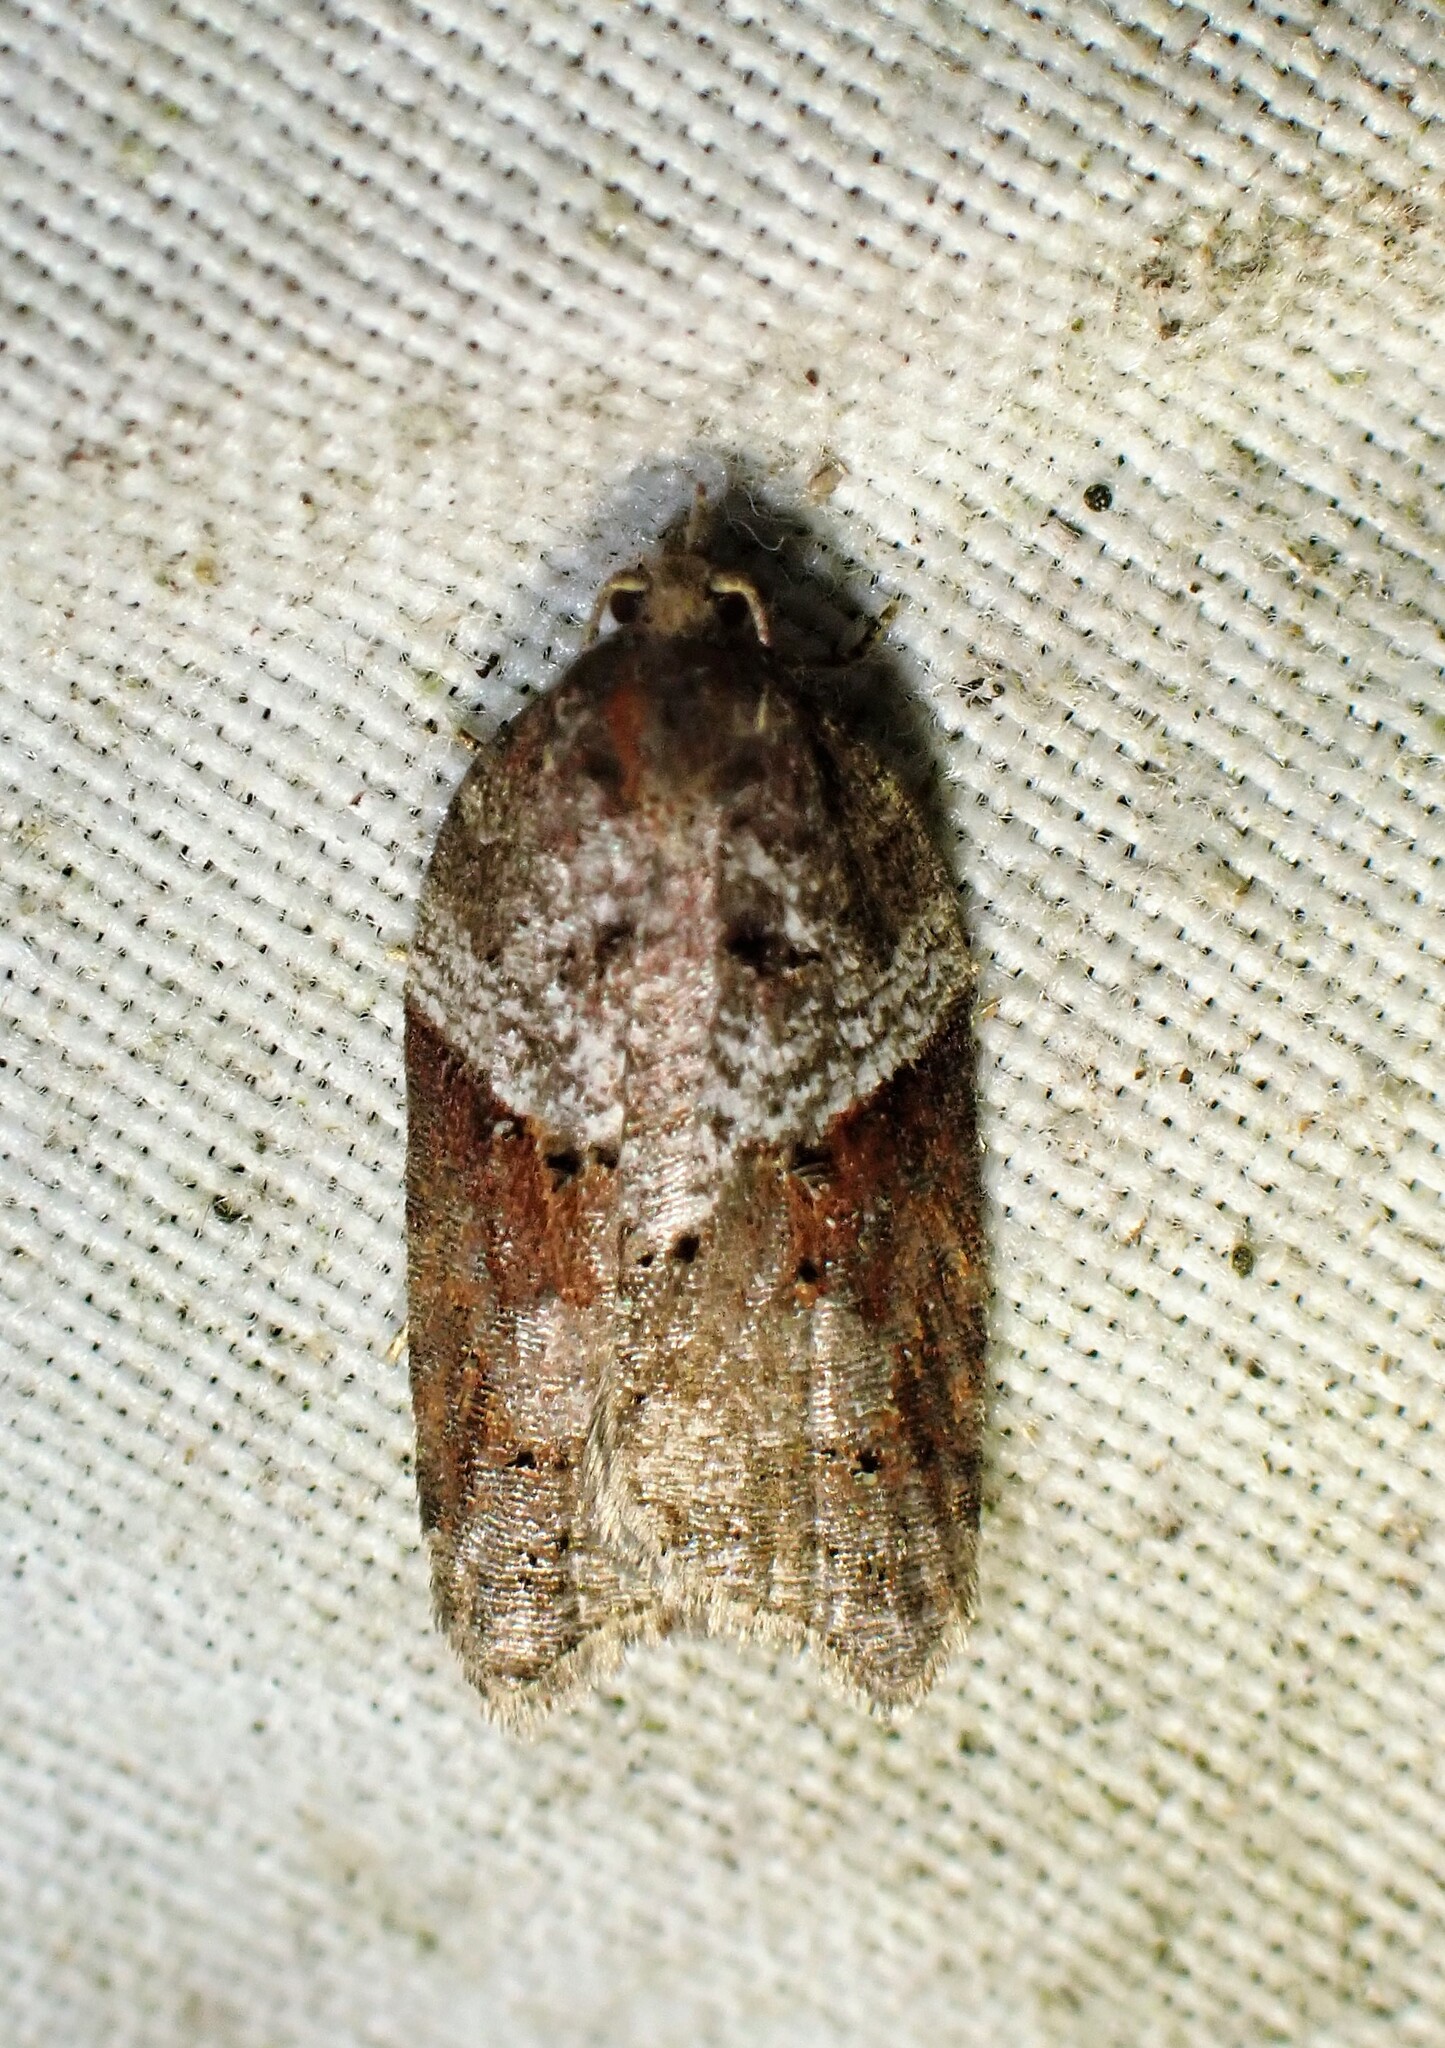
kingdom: Animalia
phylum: Arthropoda
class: Insecta
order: Lepidoptera
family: Tortricidae
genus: Acleris
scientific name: Acleris macdunnoughi
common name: Macdunnough's acleris
